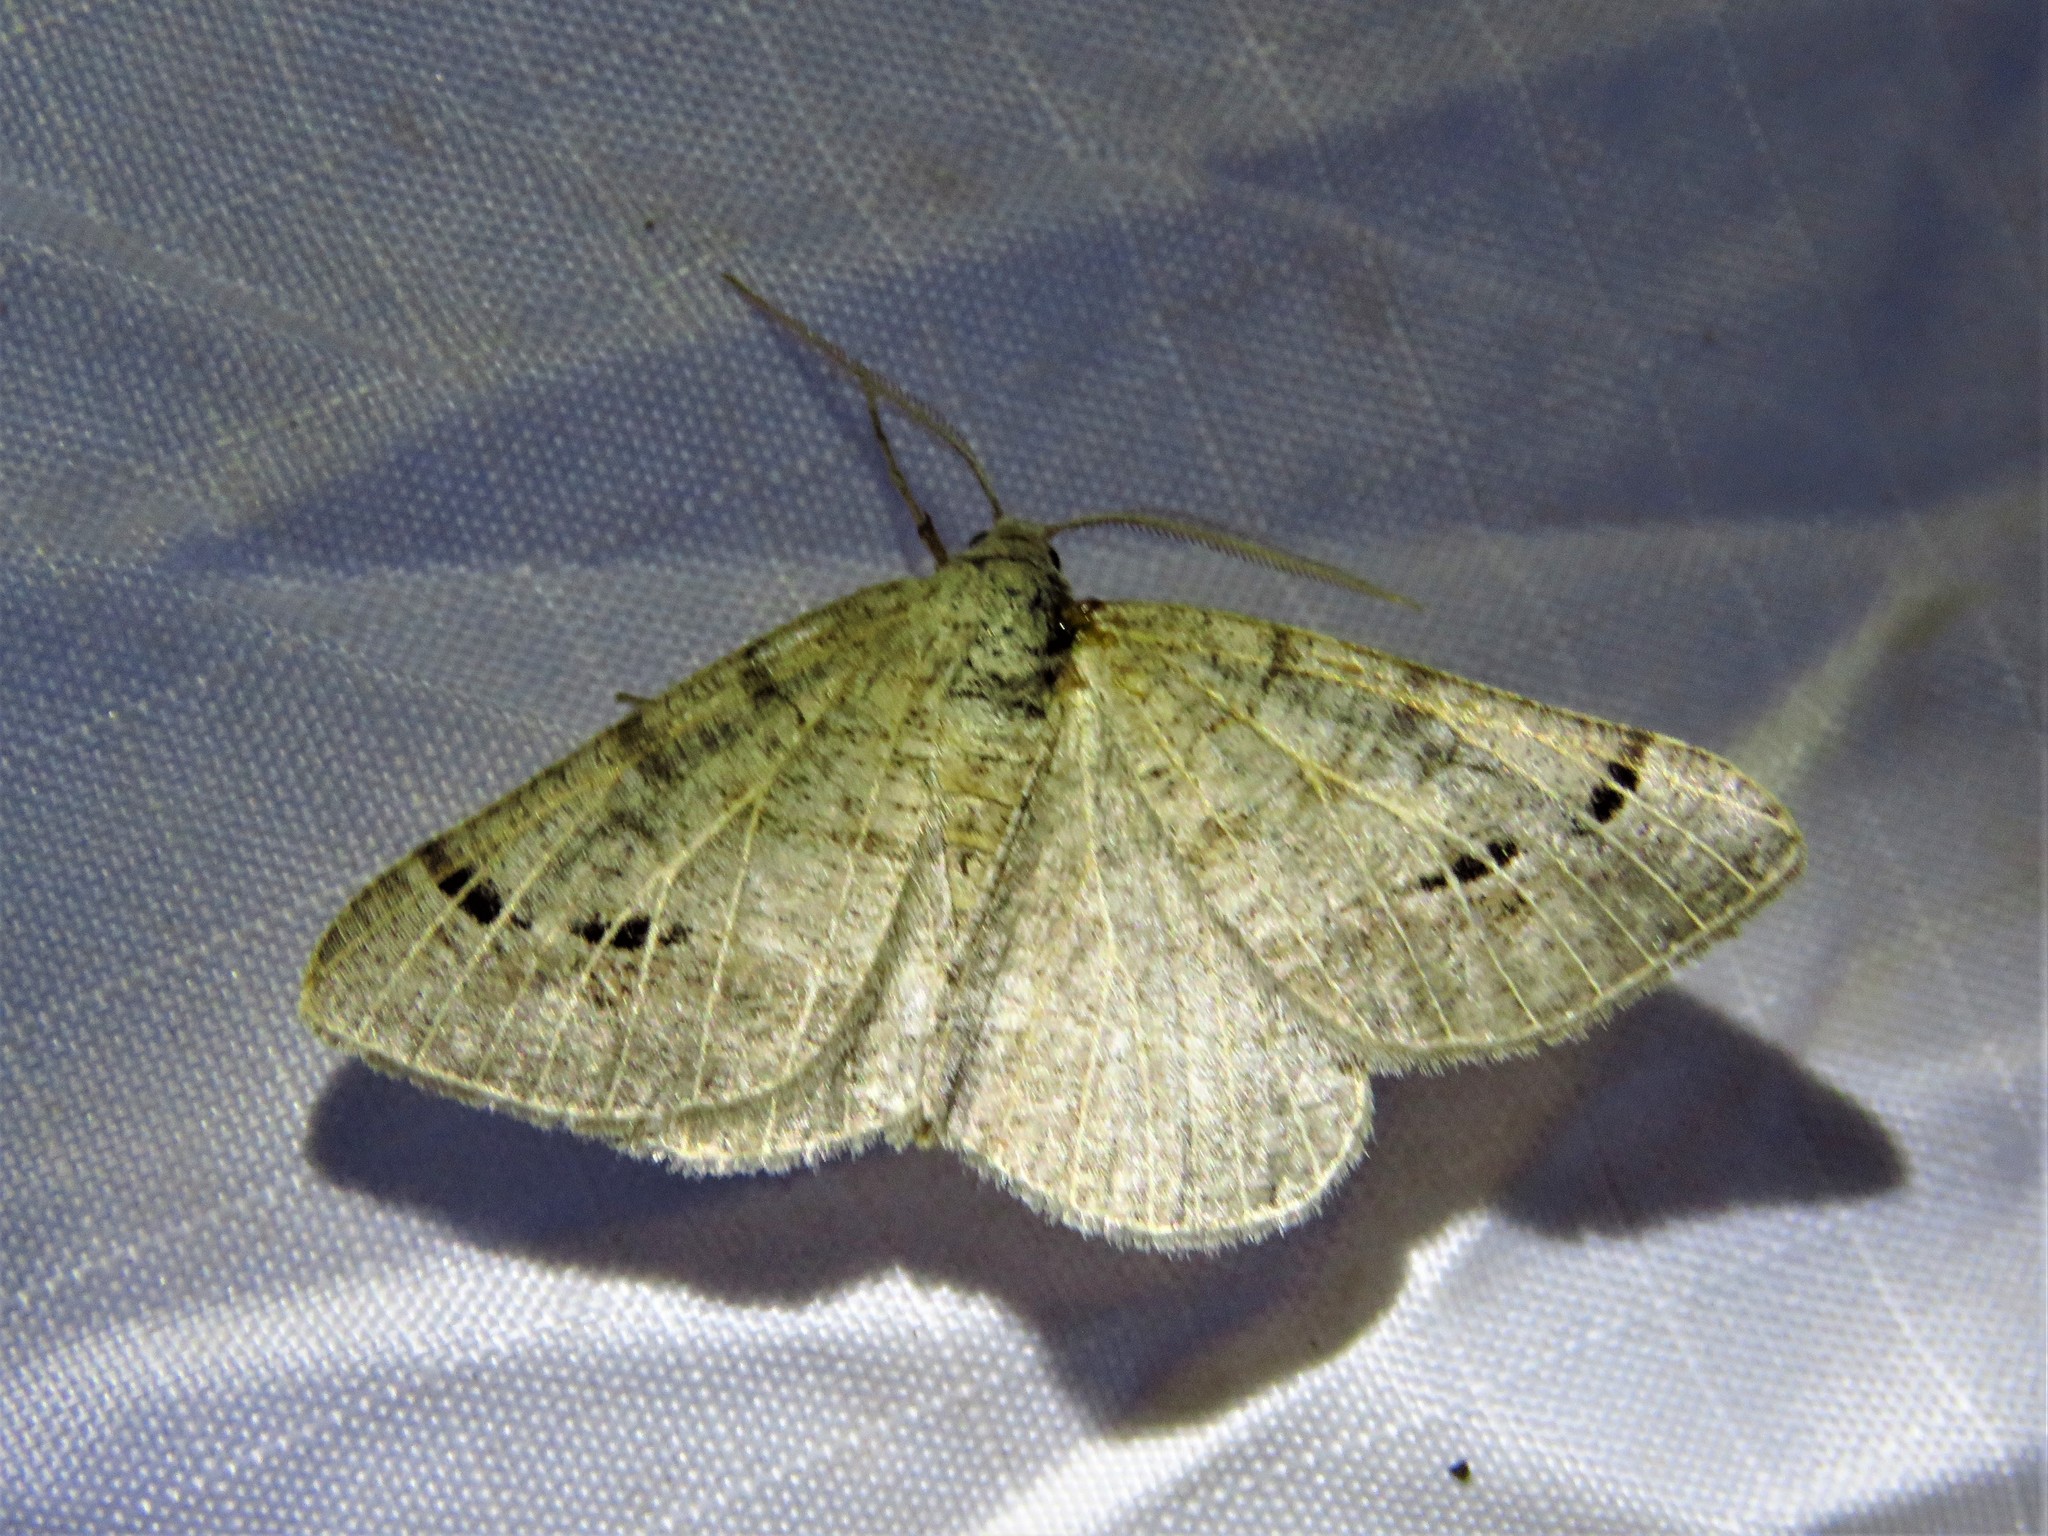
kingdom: Animalia
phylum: Arthropoda
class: Insecta
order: Lepidoptera
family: Geometridae
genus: Isturgia
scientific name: Isturgia dislocaria
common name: Pale-viened enconista
